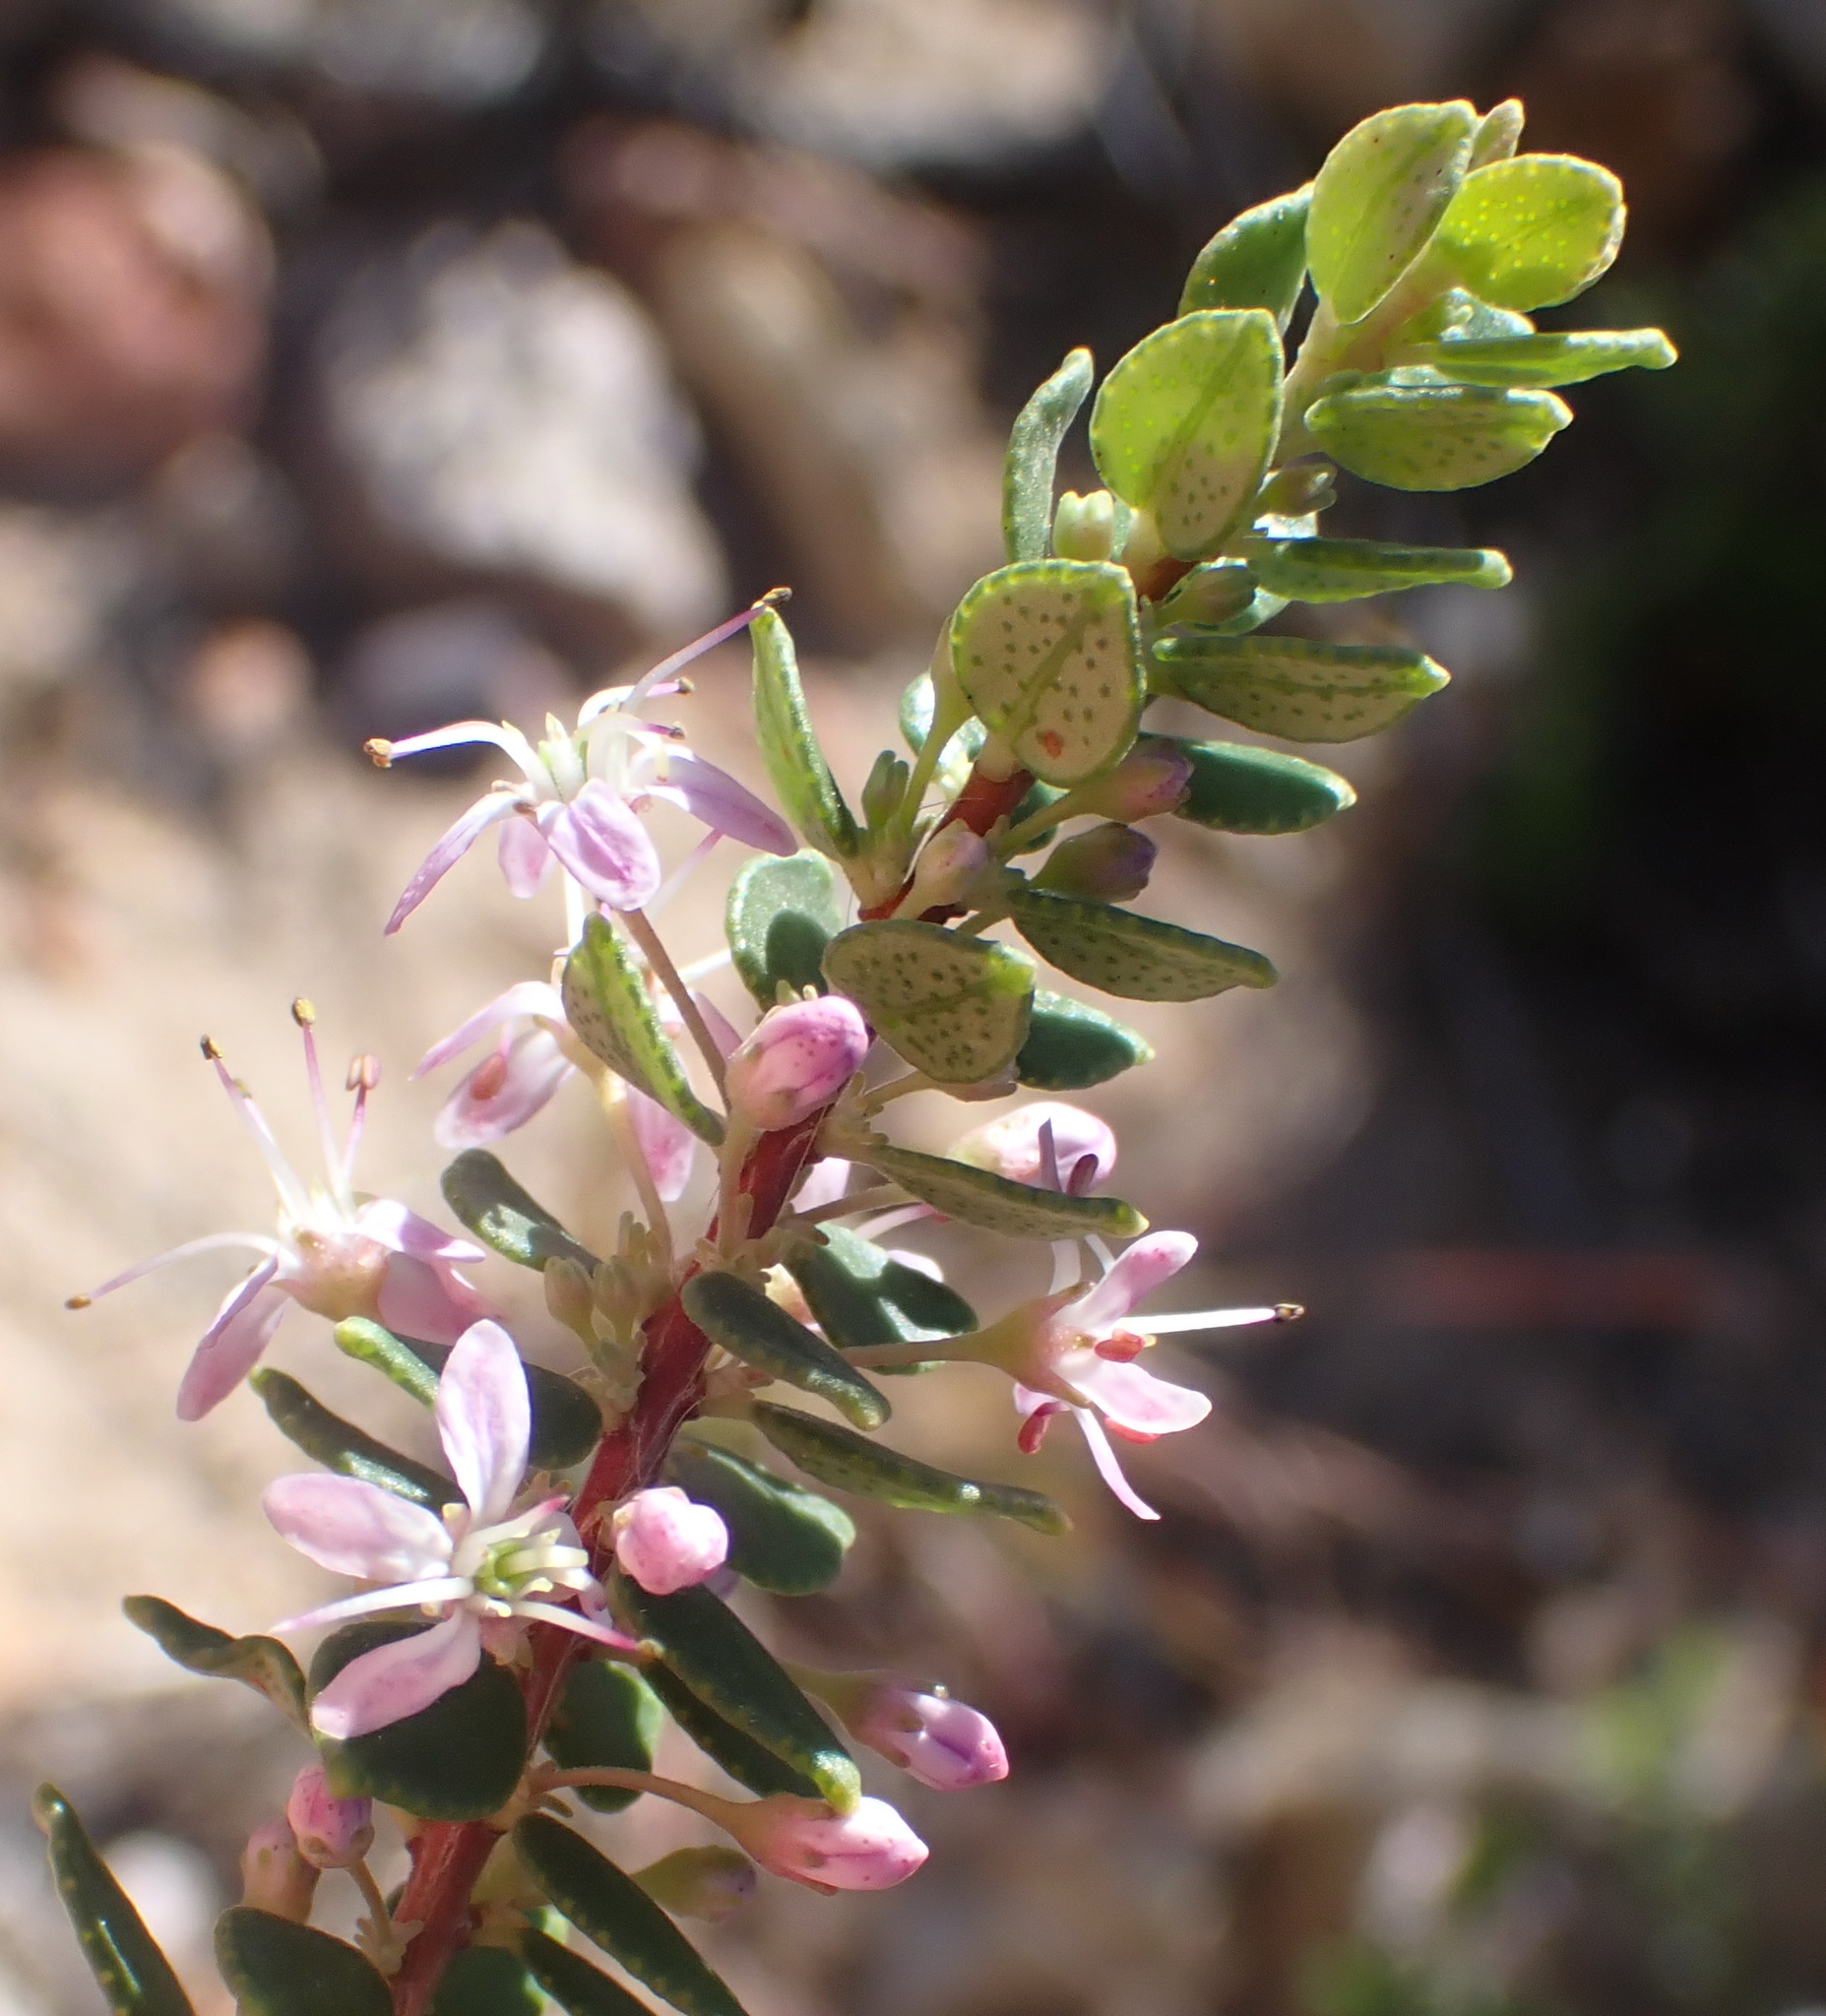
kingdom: Plantae
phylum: Tracheophyta
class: Magnoliopsida
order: Sapindales
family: Rutaceae
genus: Agathosma
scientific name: Agathosma ovata
